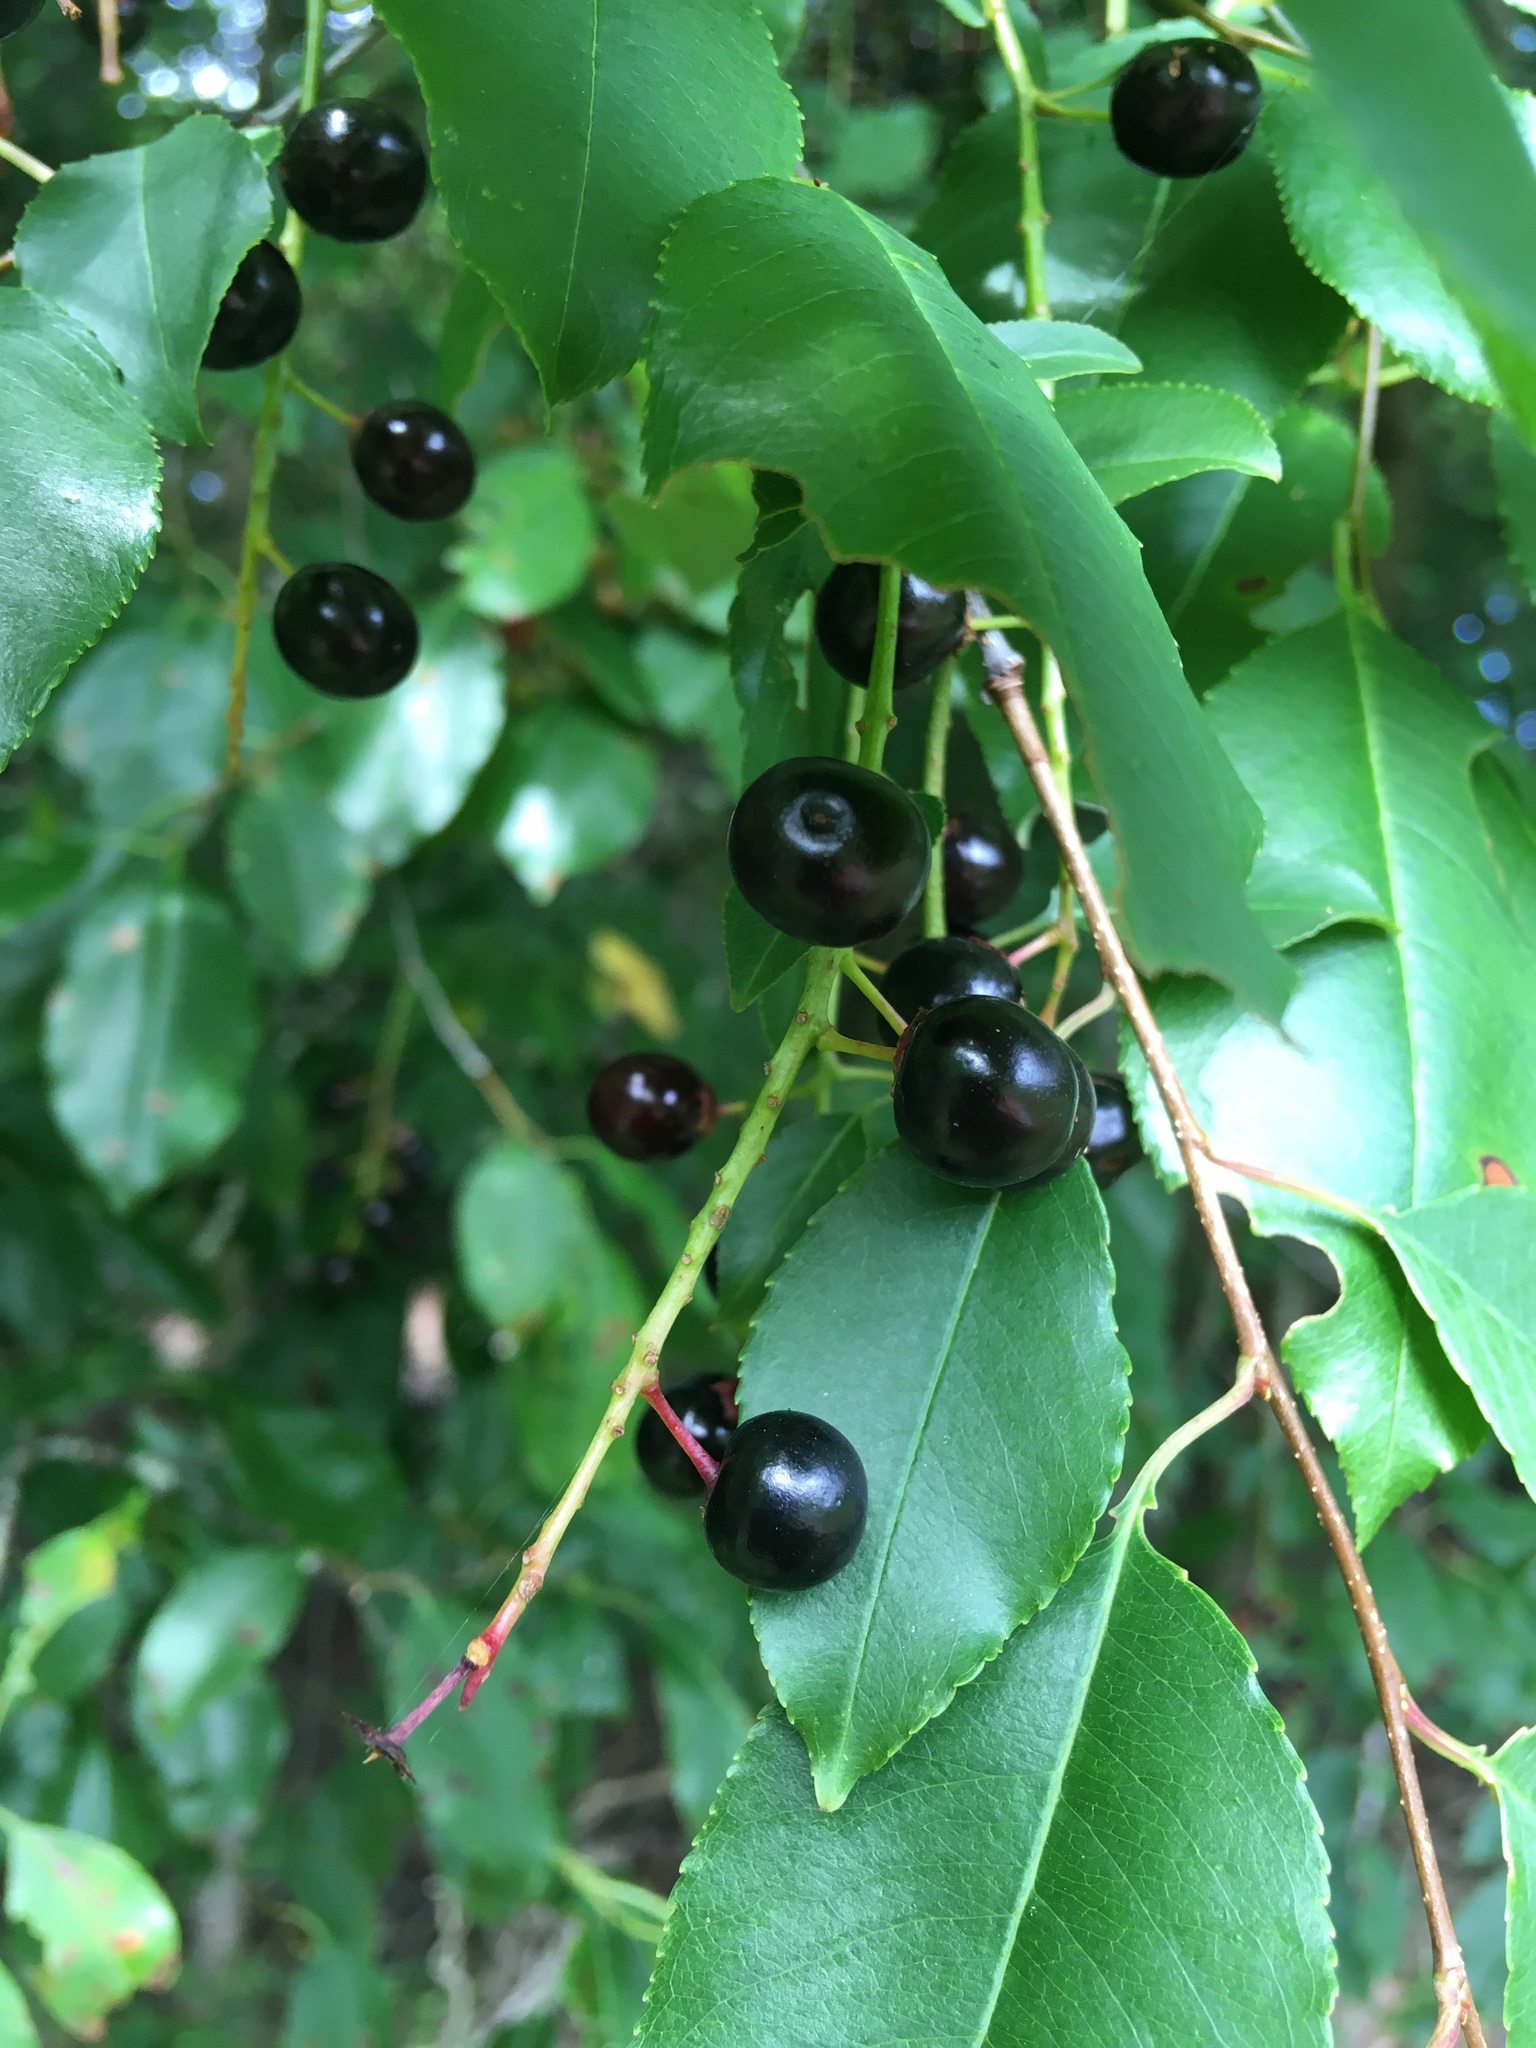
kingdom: Plantae
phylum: Tracheophyta
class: Magnoliopsida
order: Rosales
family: Rosaceae
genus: Prunus
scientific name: Prunus serotina
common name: Black cherry
